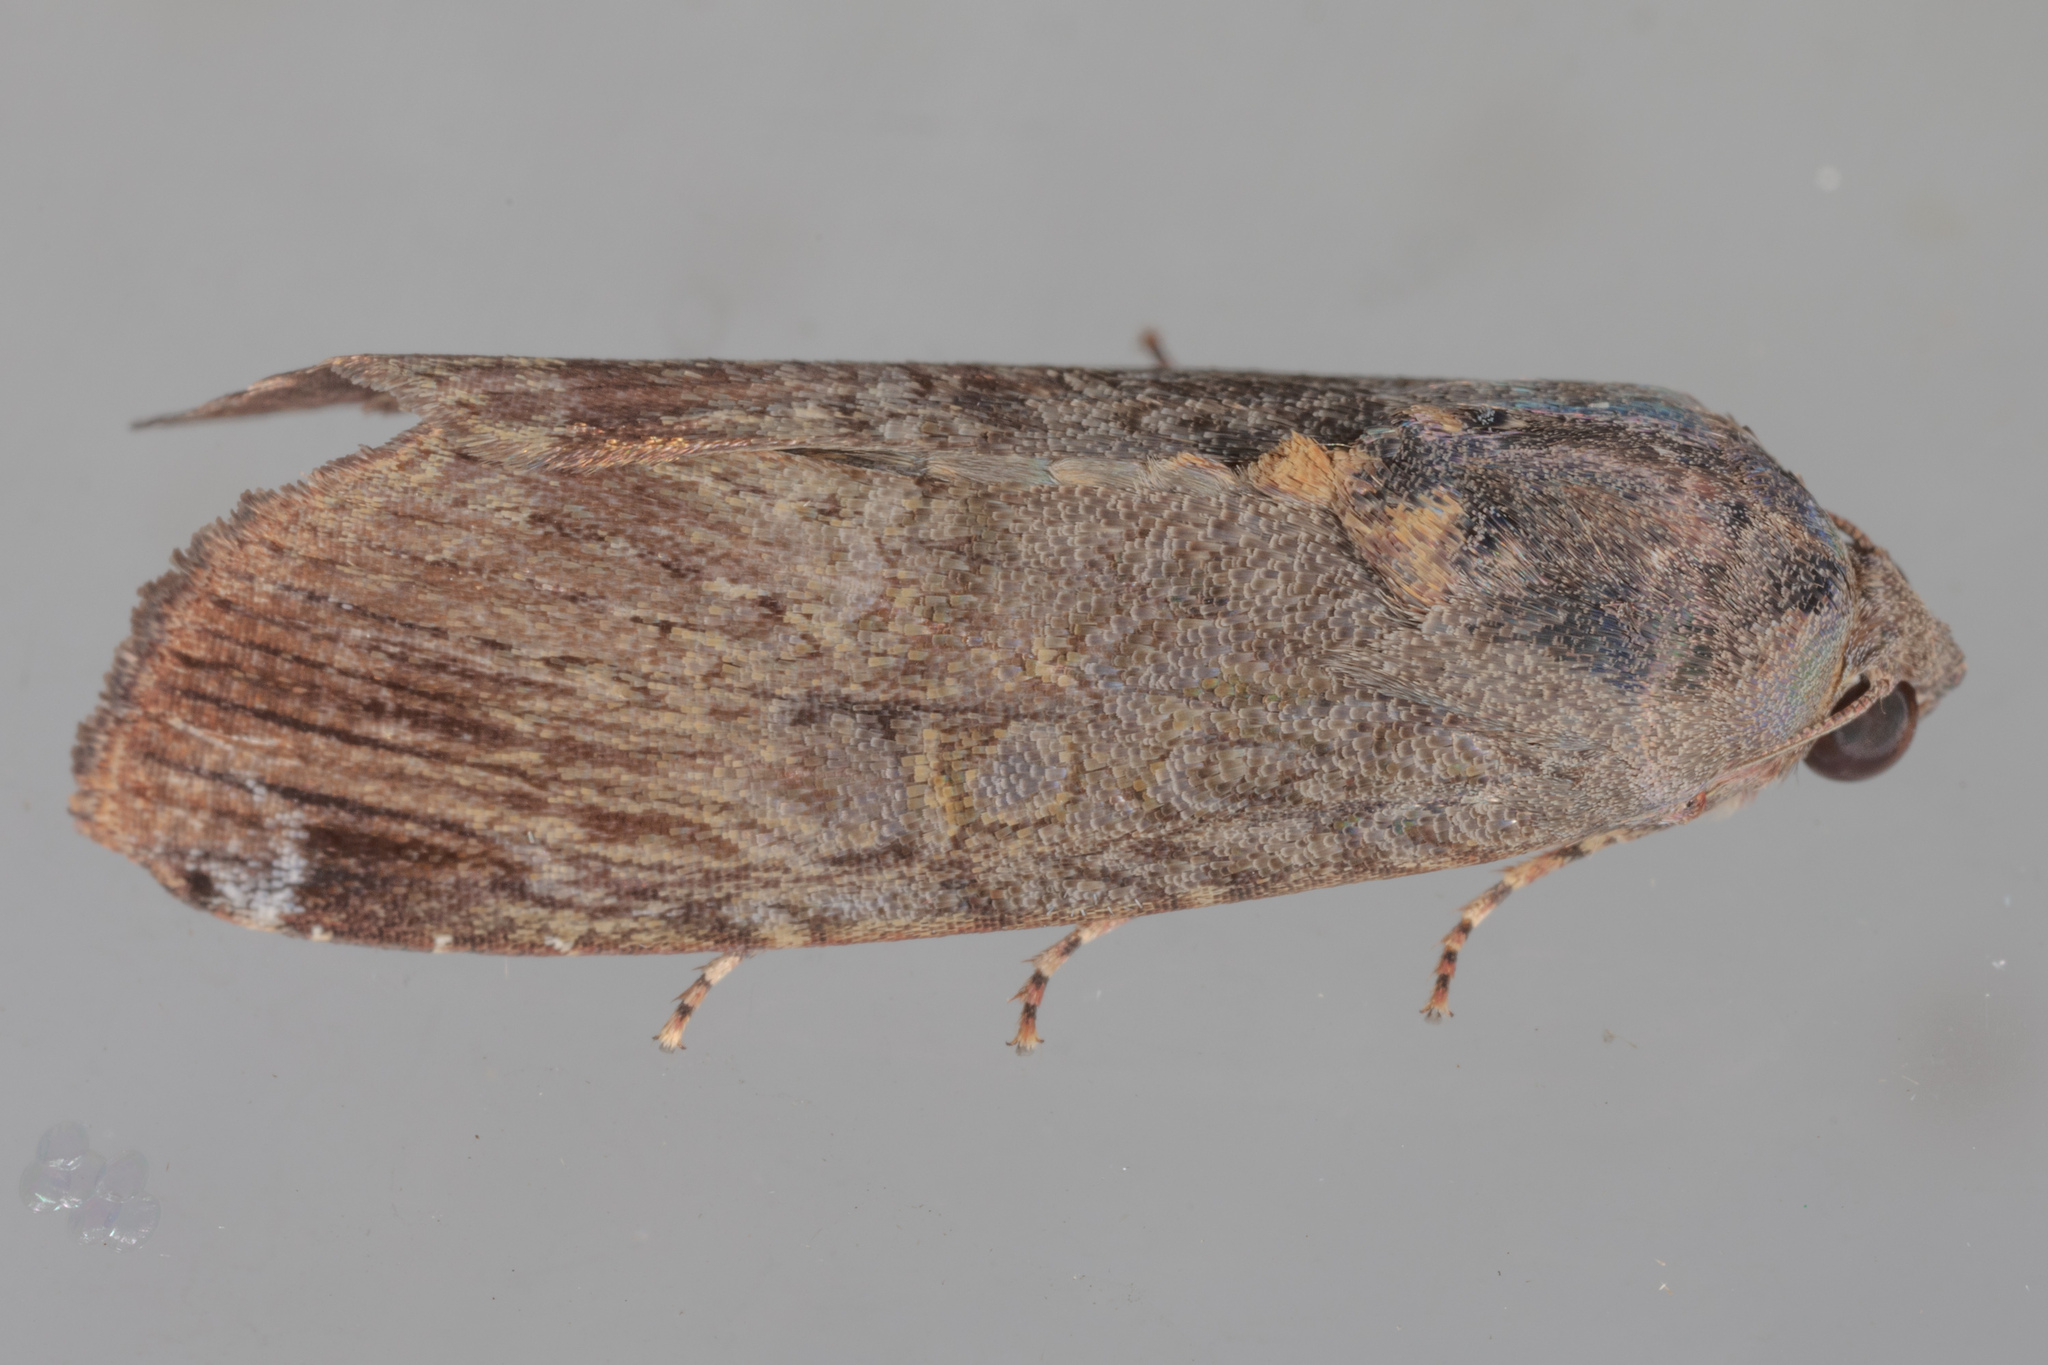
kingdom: Animalia
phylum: Arthropoda
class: Insecta
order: Lepidoptera
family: Noctuidae
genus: Magusa
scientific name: Magusa divaricata
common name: Orb narrow-winged moth
